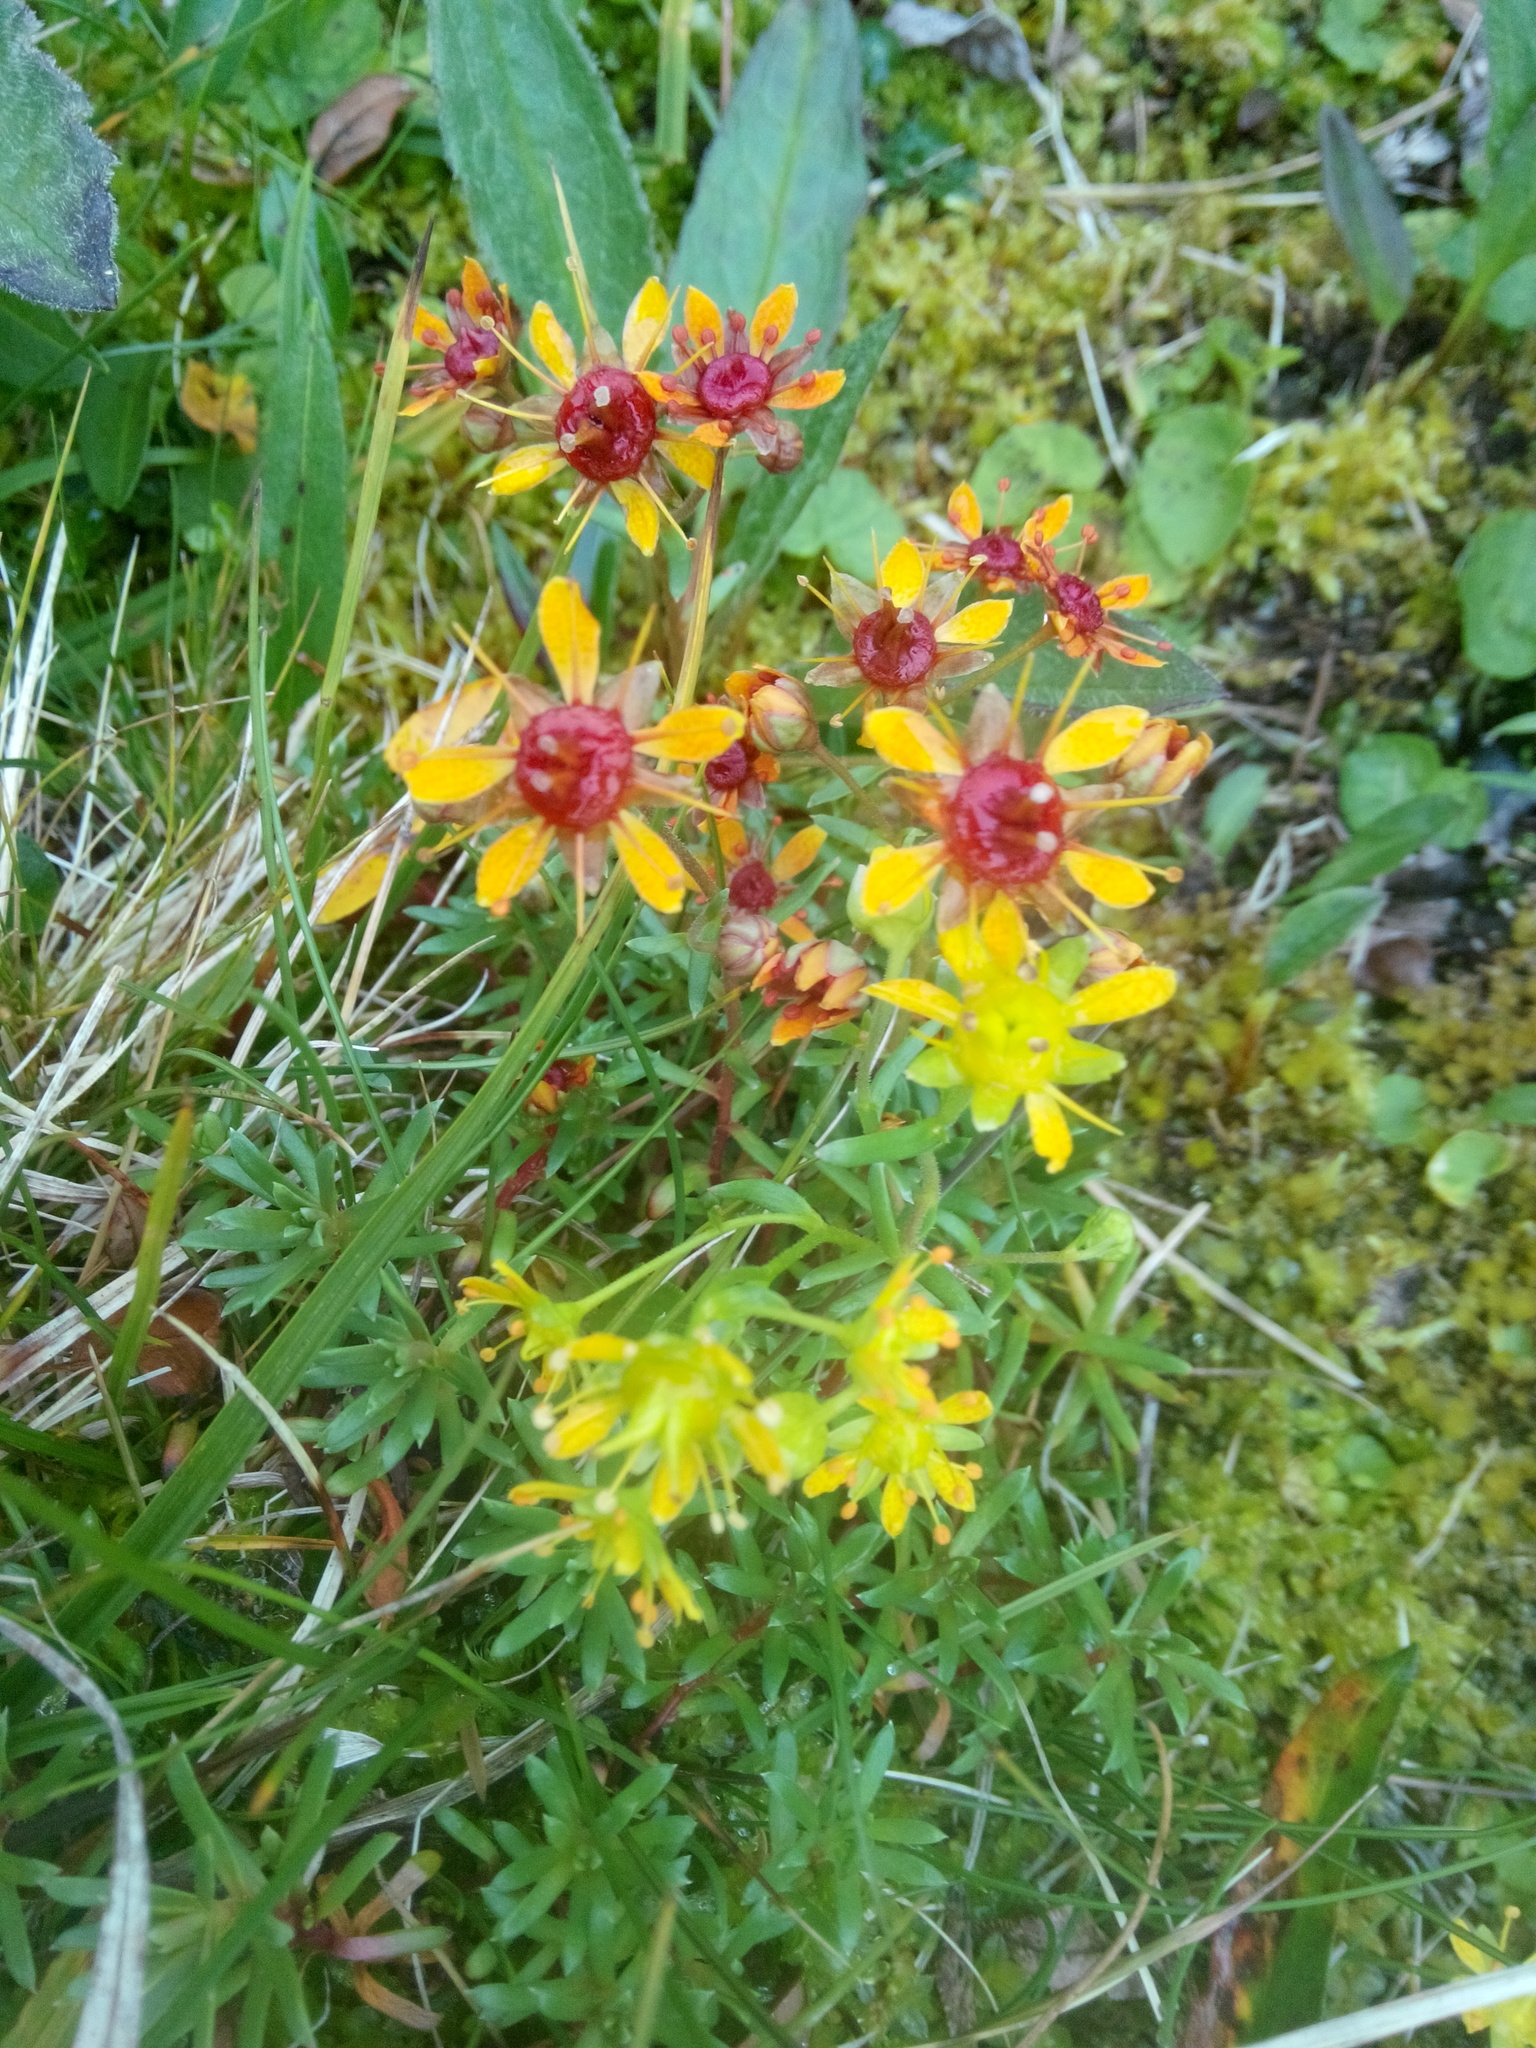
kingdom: Plantae
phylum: Tracheophyta
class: Magnoliopsida
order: Saxifragales
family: Saxifragaceae
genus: Saxifraga
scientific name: Saxifraga aizoides
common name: Yellow mountain saxifrage
